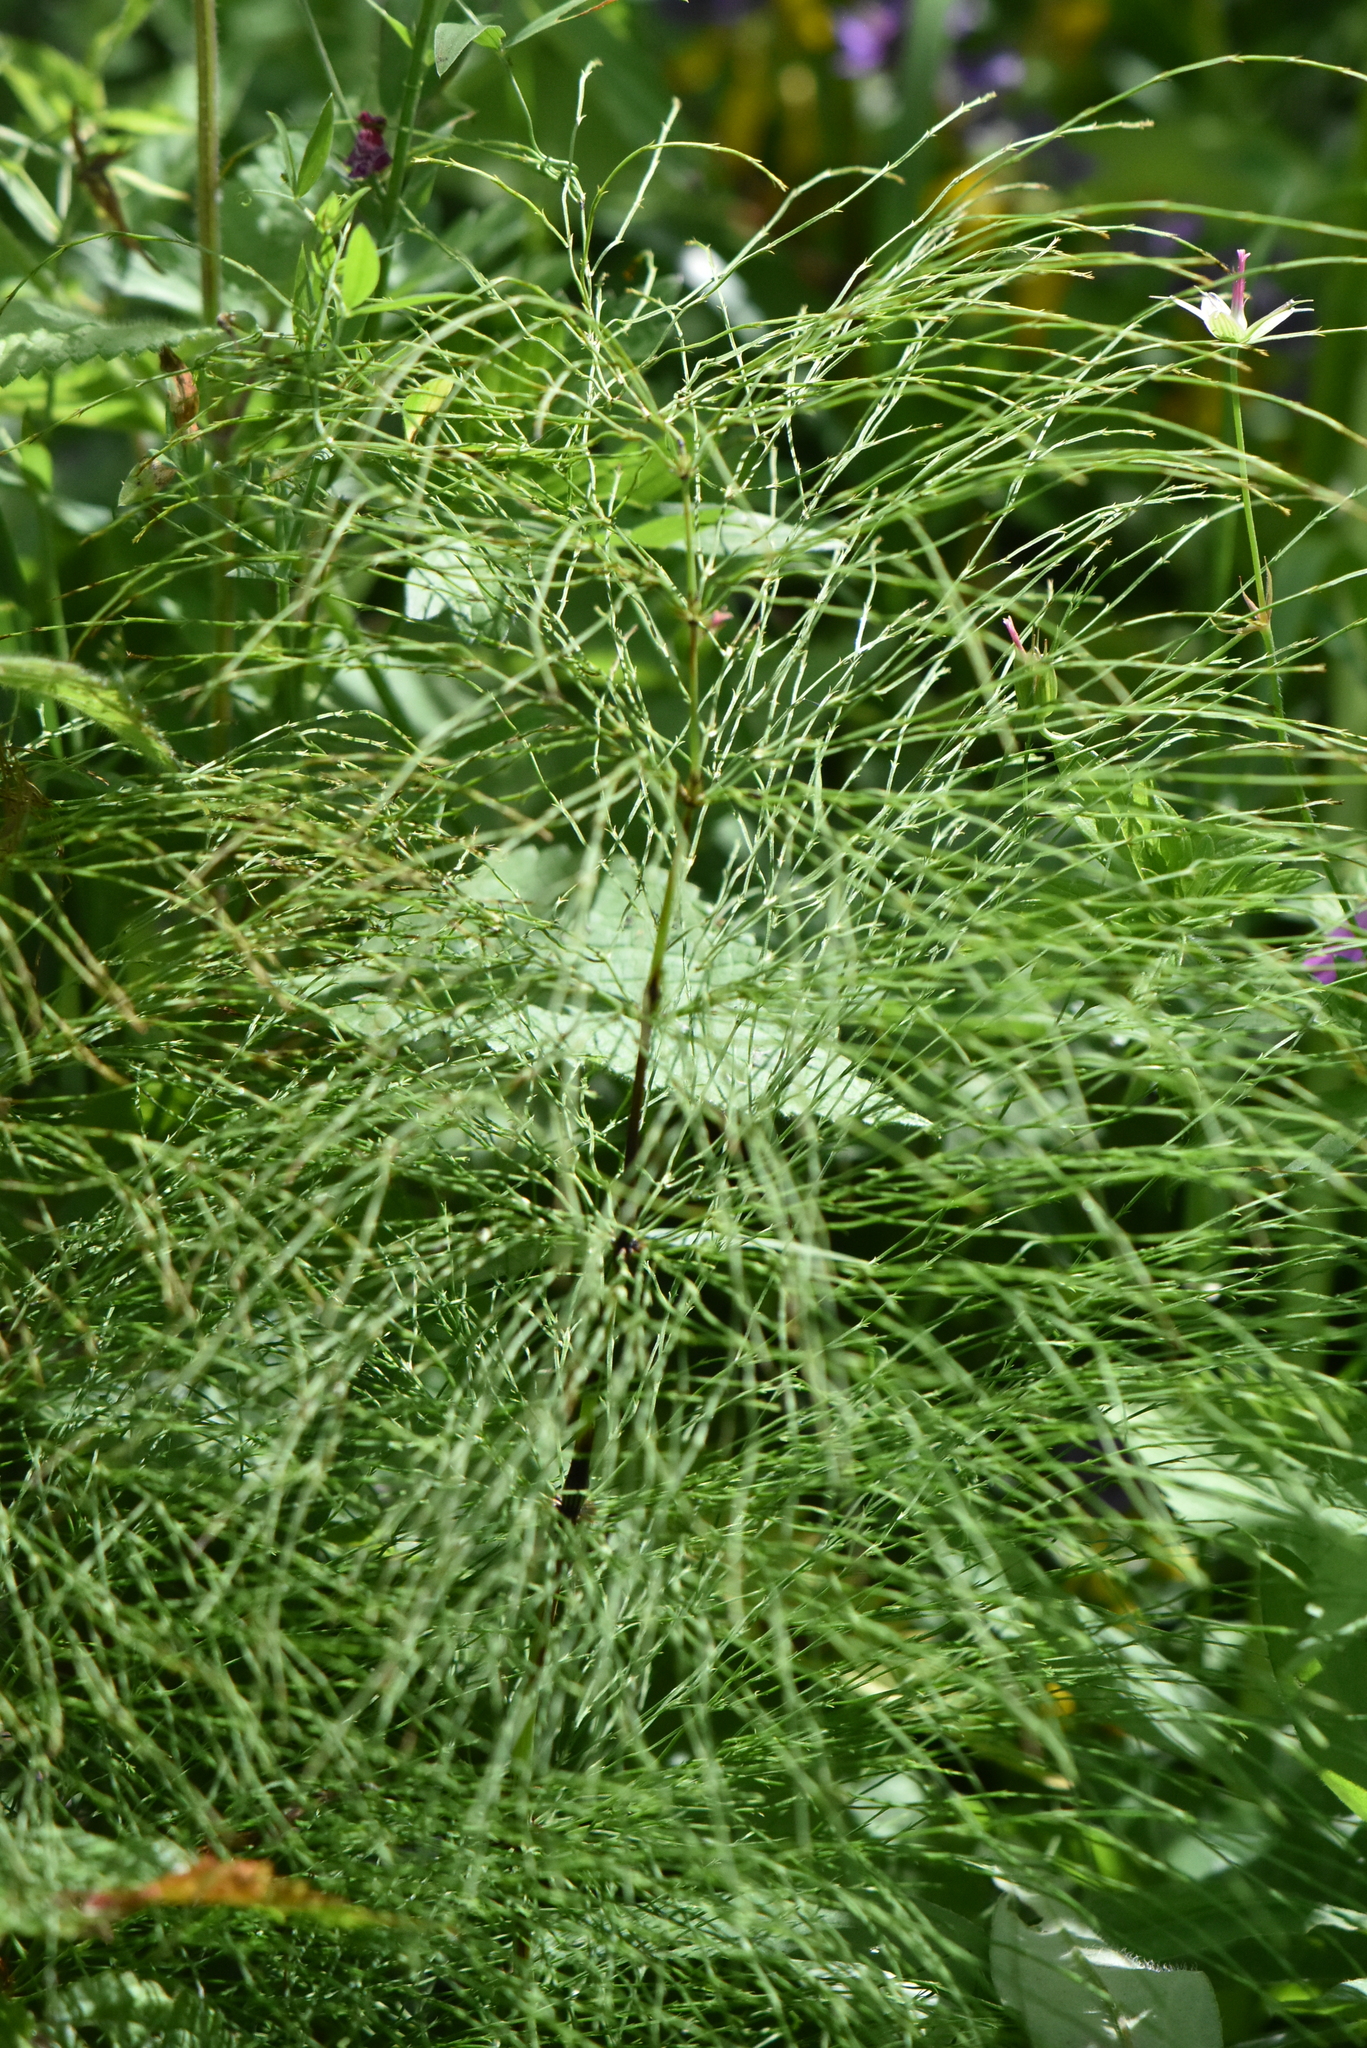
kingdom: Plantae
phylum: Tracheophyta
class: Polypodiopsida
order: Equisetales
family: Equisetaceae
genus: Equisetum
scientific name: Equisetum sylvaticum
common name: Wood horsetail
